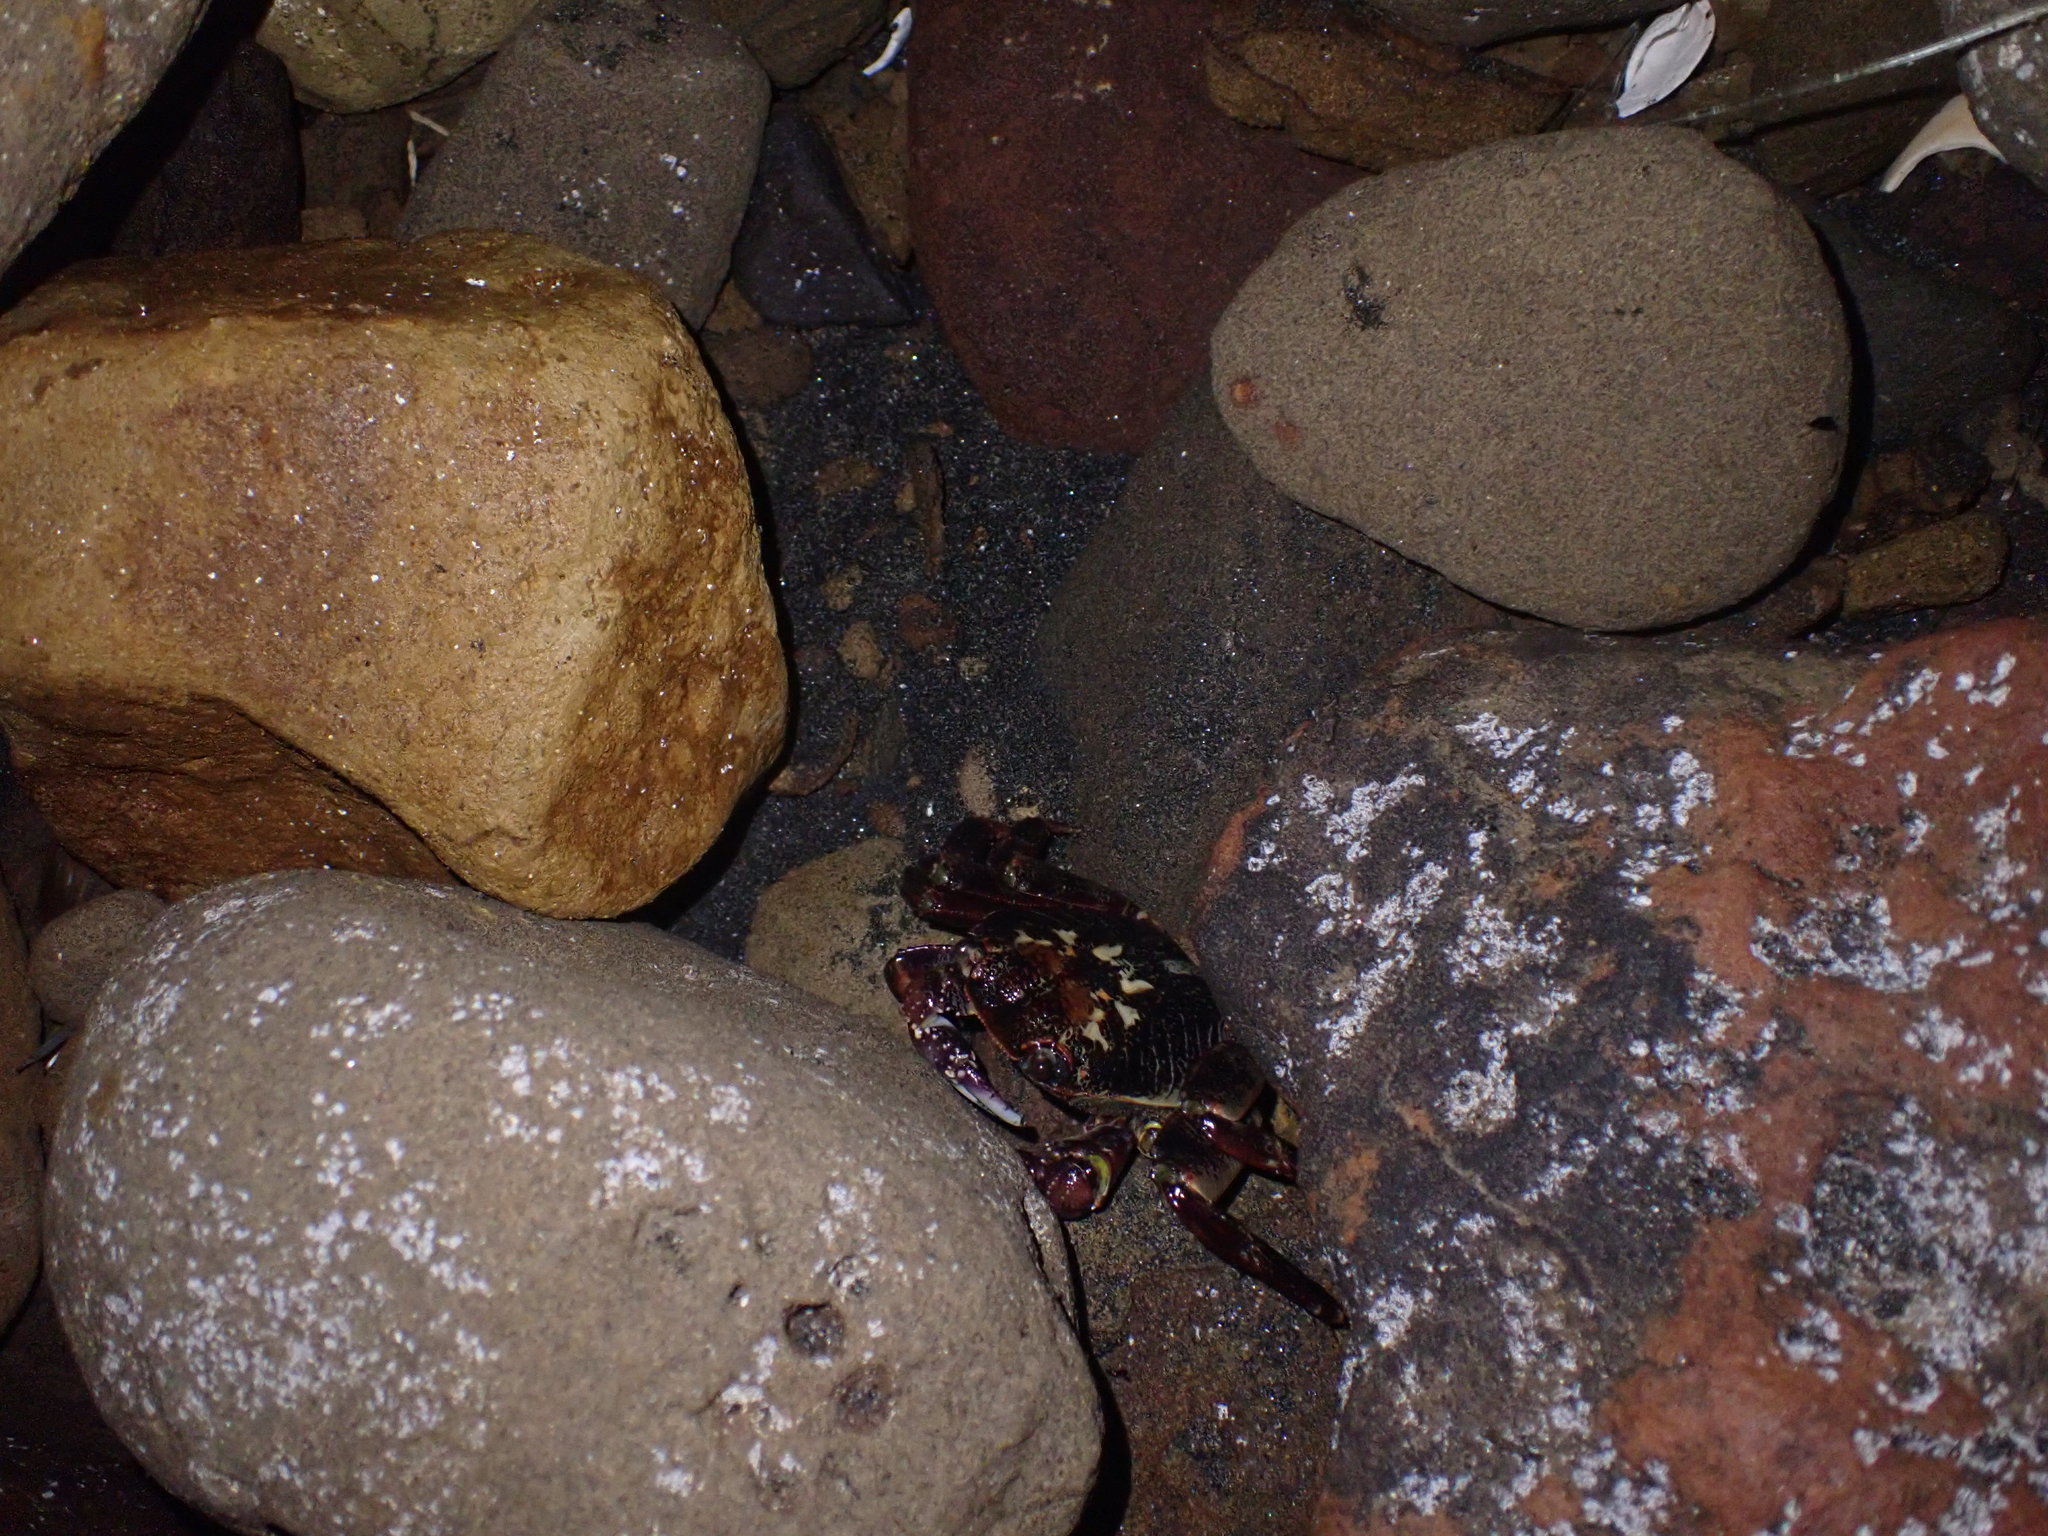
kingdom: Animalia
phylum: Arthropoda
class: Malacostraca
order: Decapoda
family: Grapsidae
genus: Leptograpsus
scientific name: Leptograpsus variegatus
